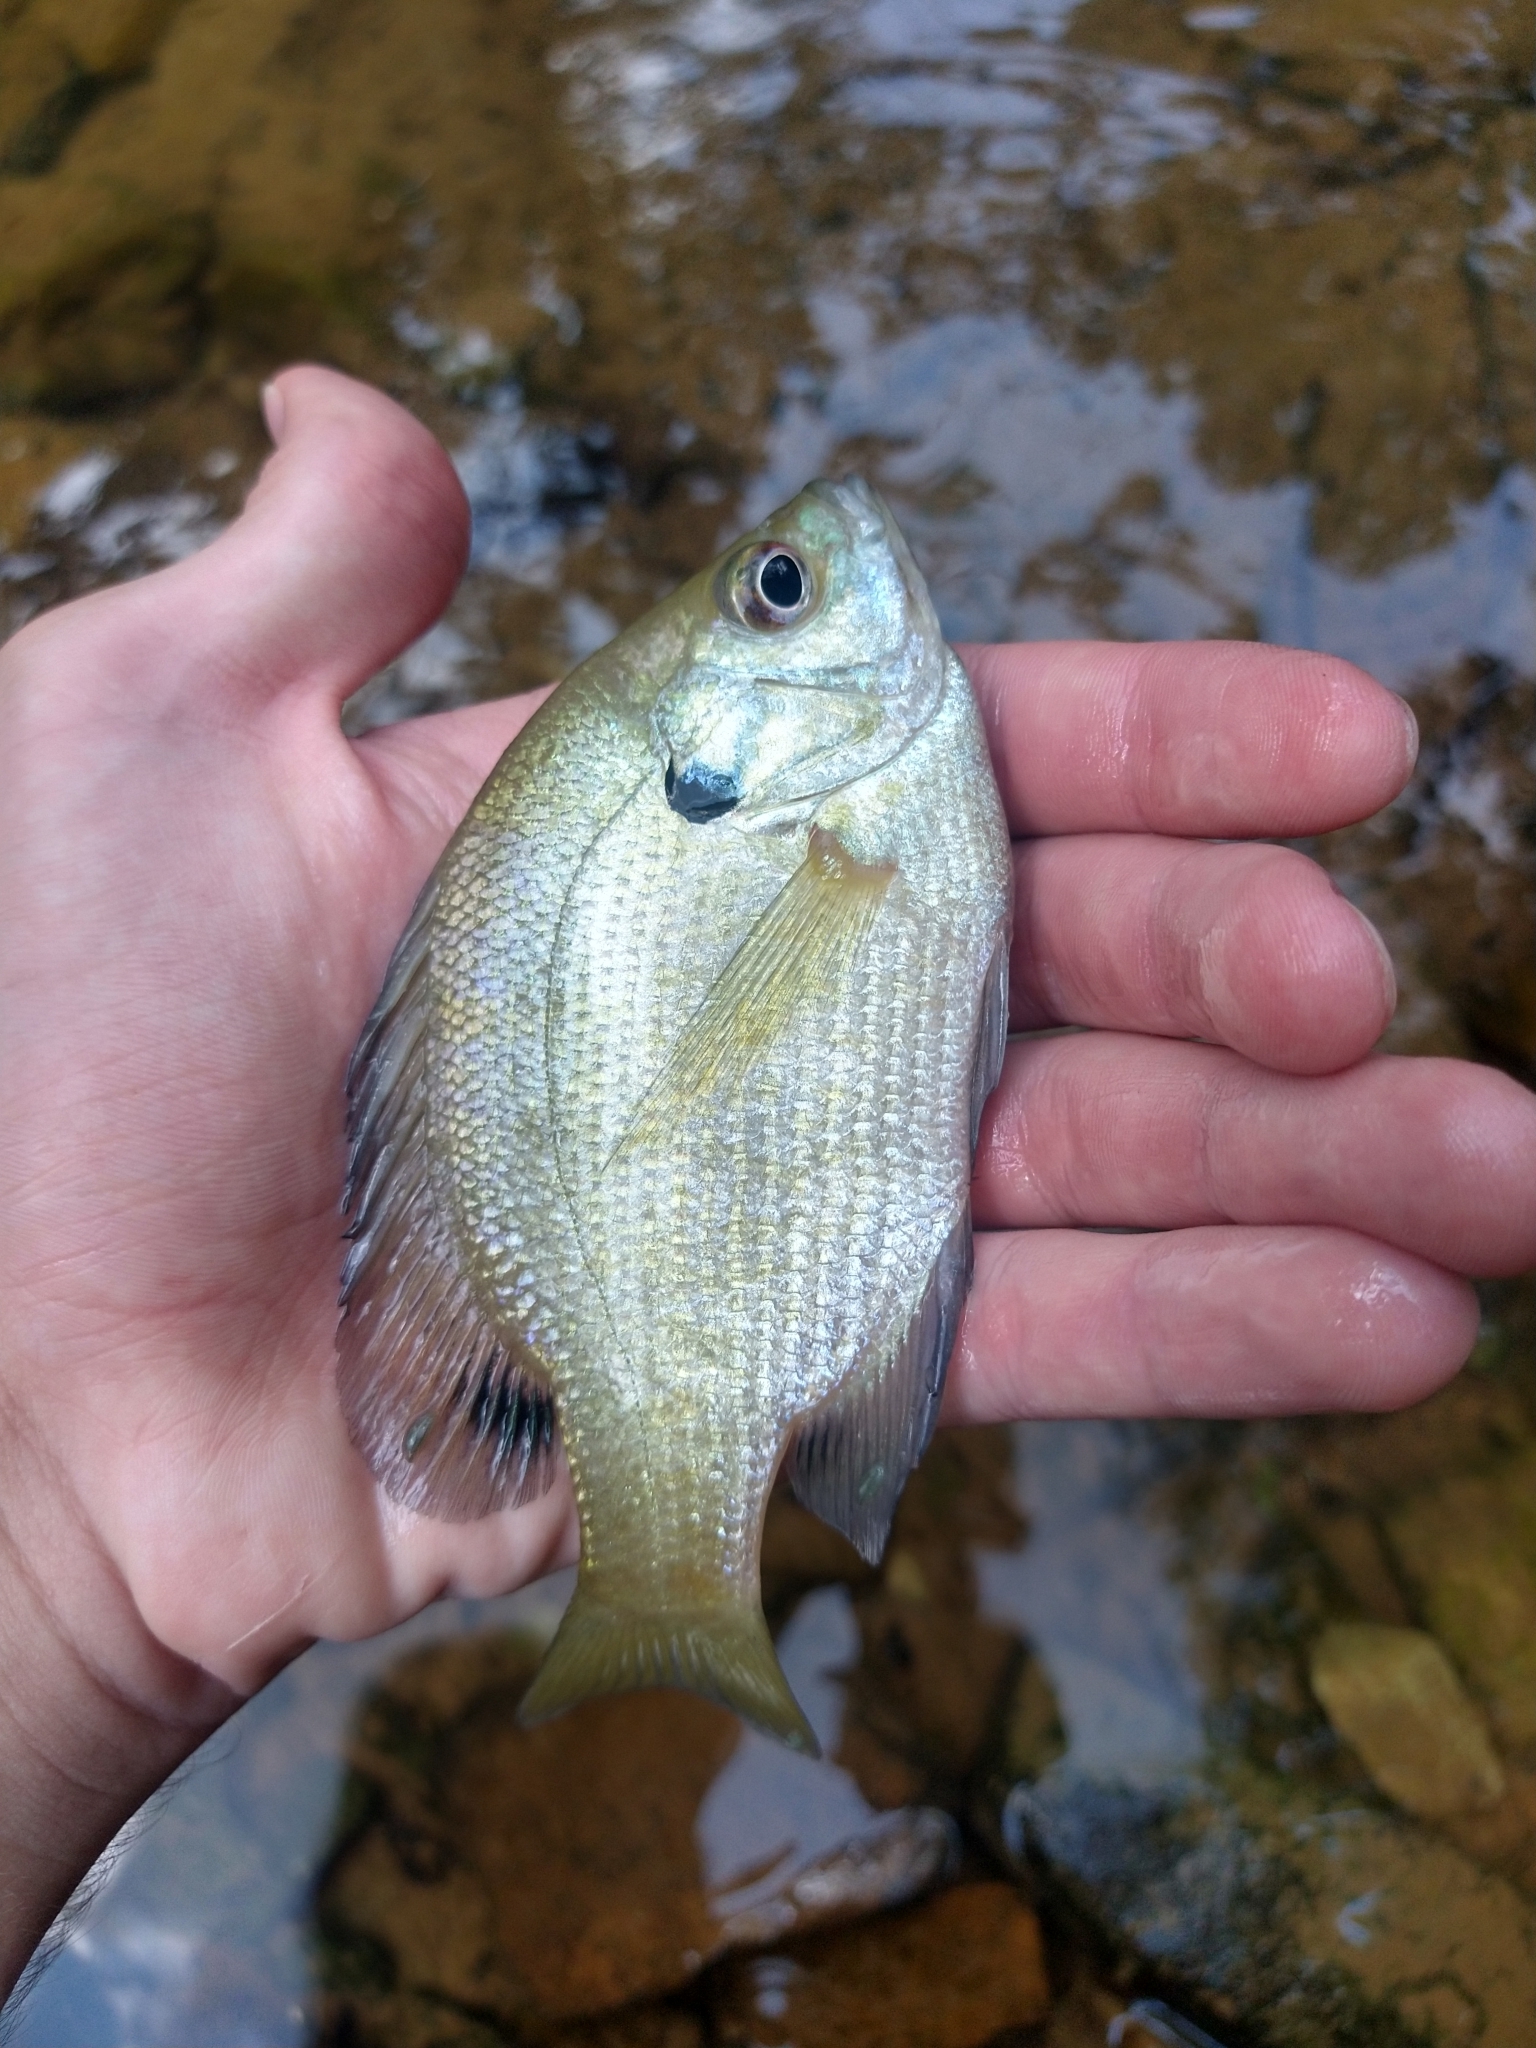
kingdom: Animalia
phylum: Chordata
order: Perciformes
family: Centrarchidae
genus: Lepomis
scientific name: Lepomis macrochirus
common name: Bluegill
